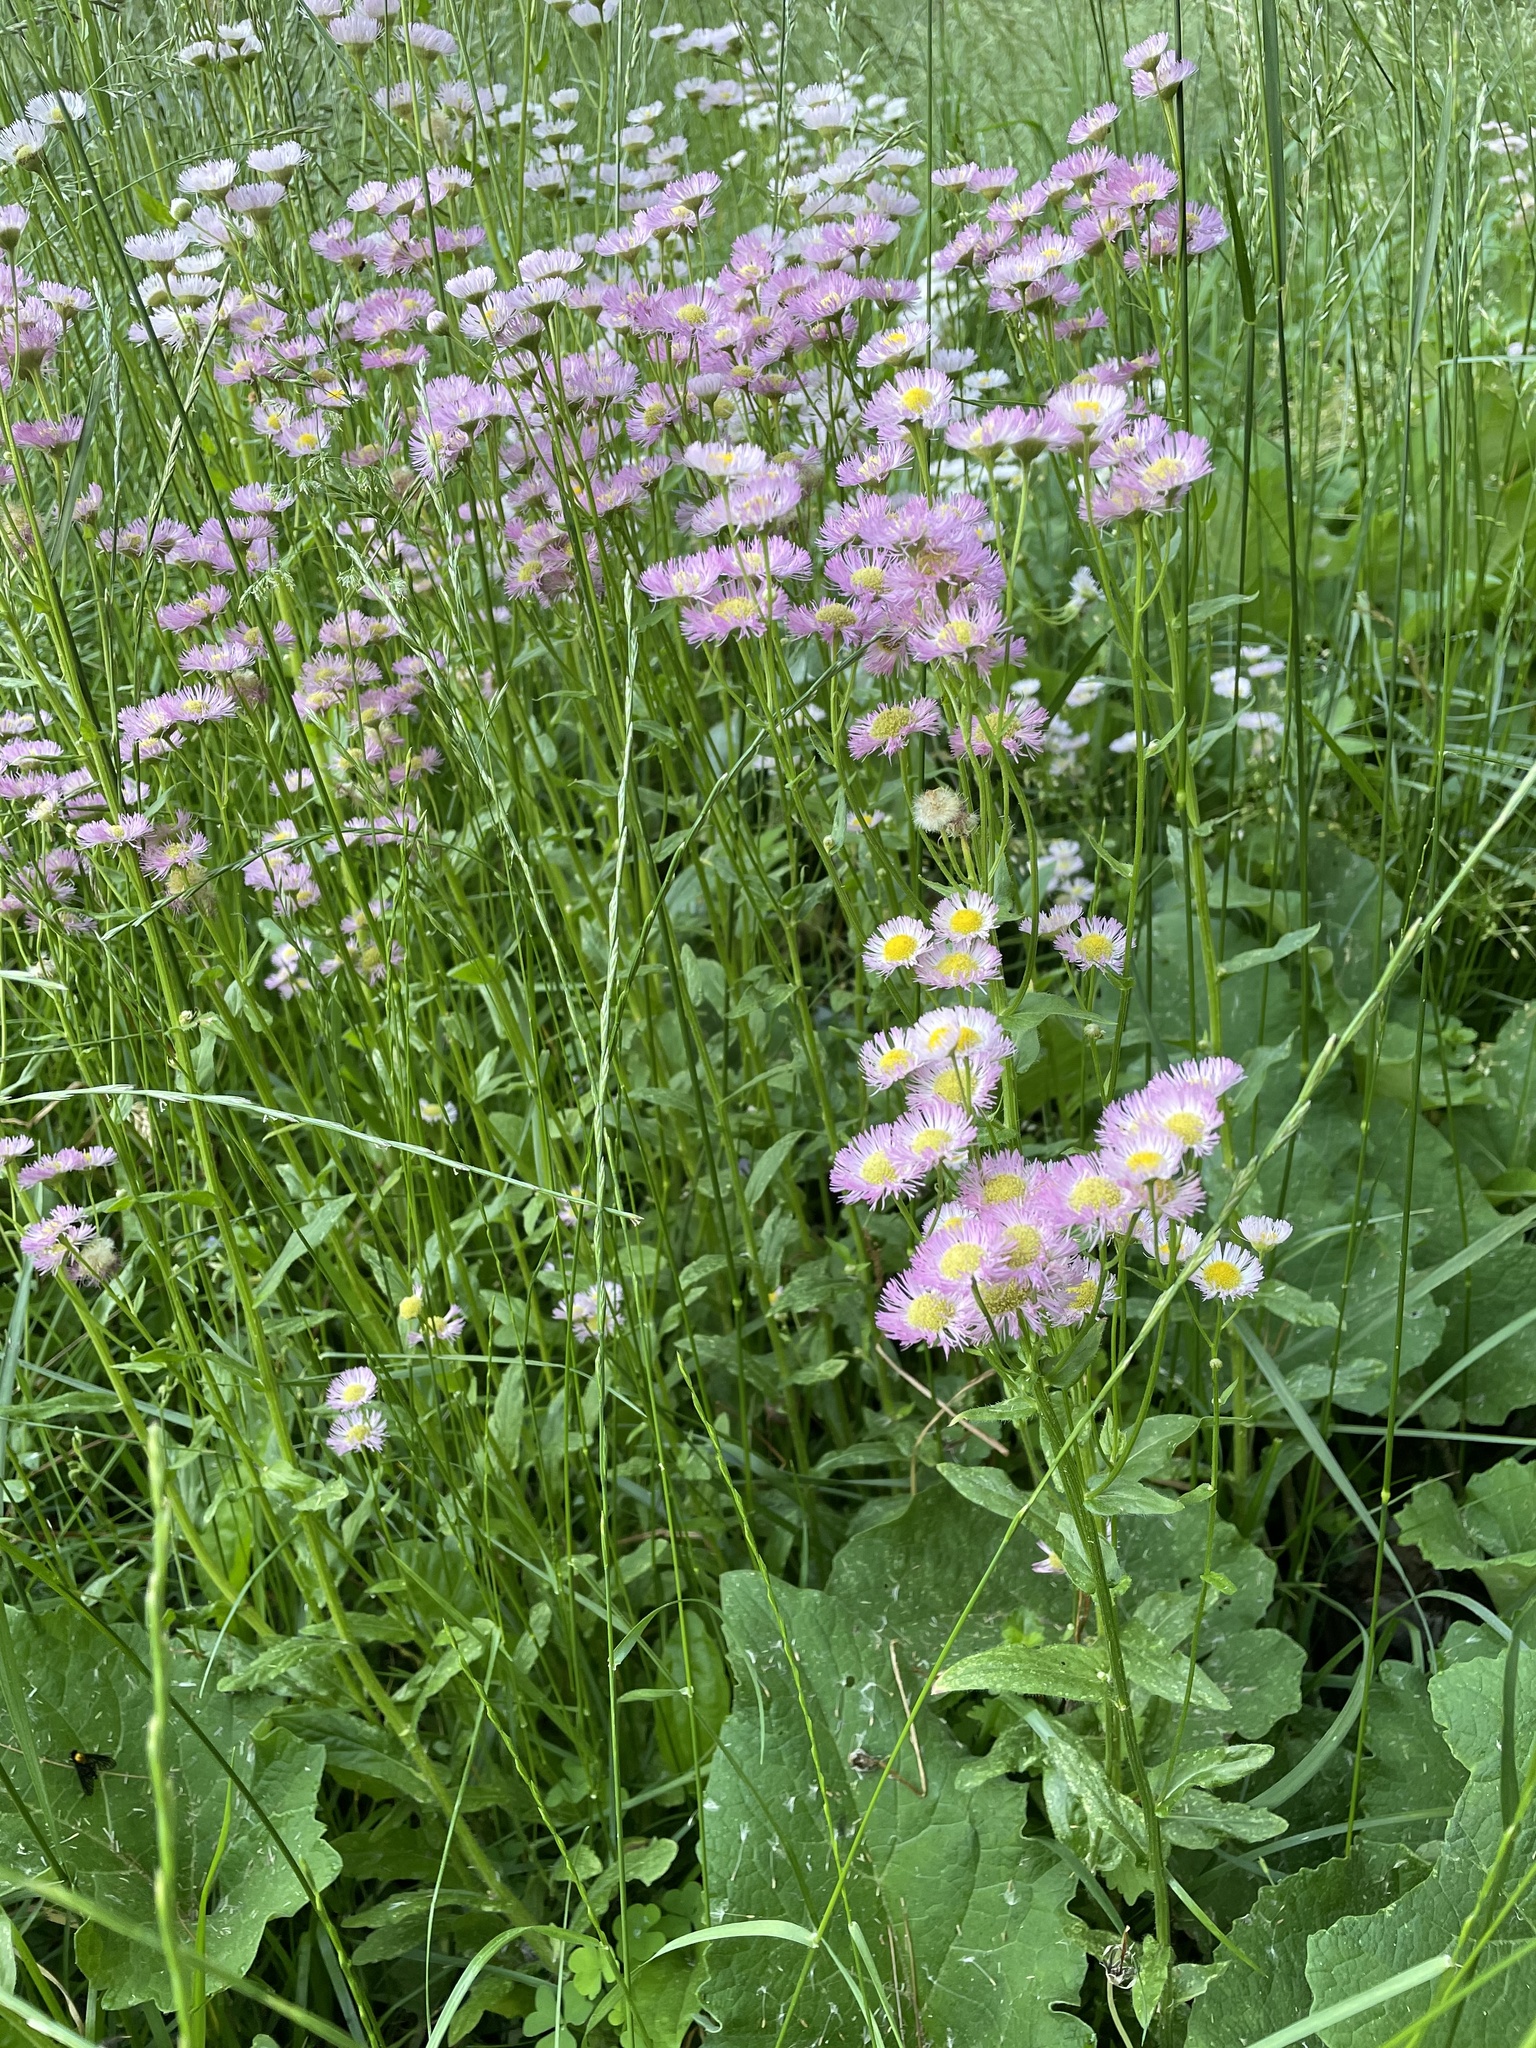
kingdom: Plantae
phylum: Tracheophyta
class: Magnoliopsida
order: Asterales
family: Asteraceae
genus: Erigeron
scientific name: Erigeron philadelphicus
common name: Robin's-plantain
